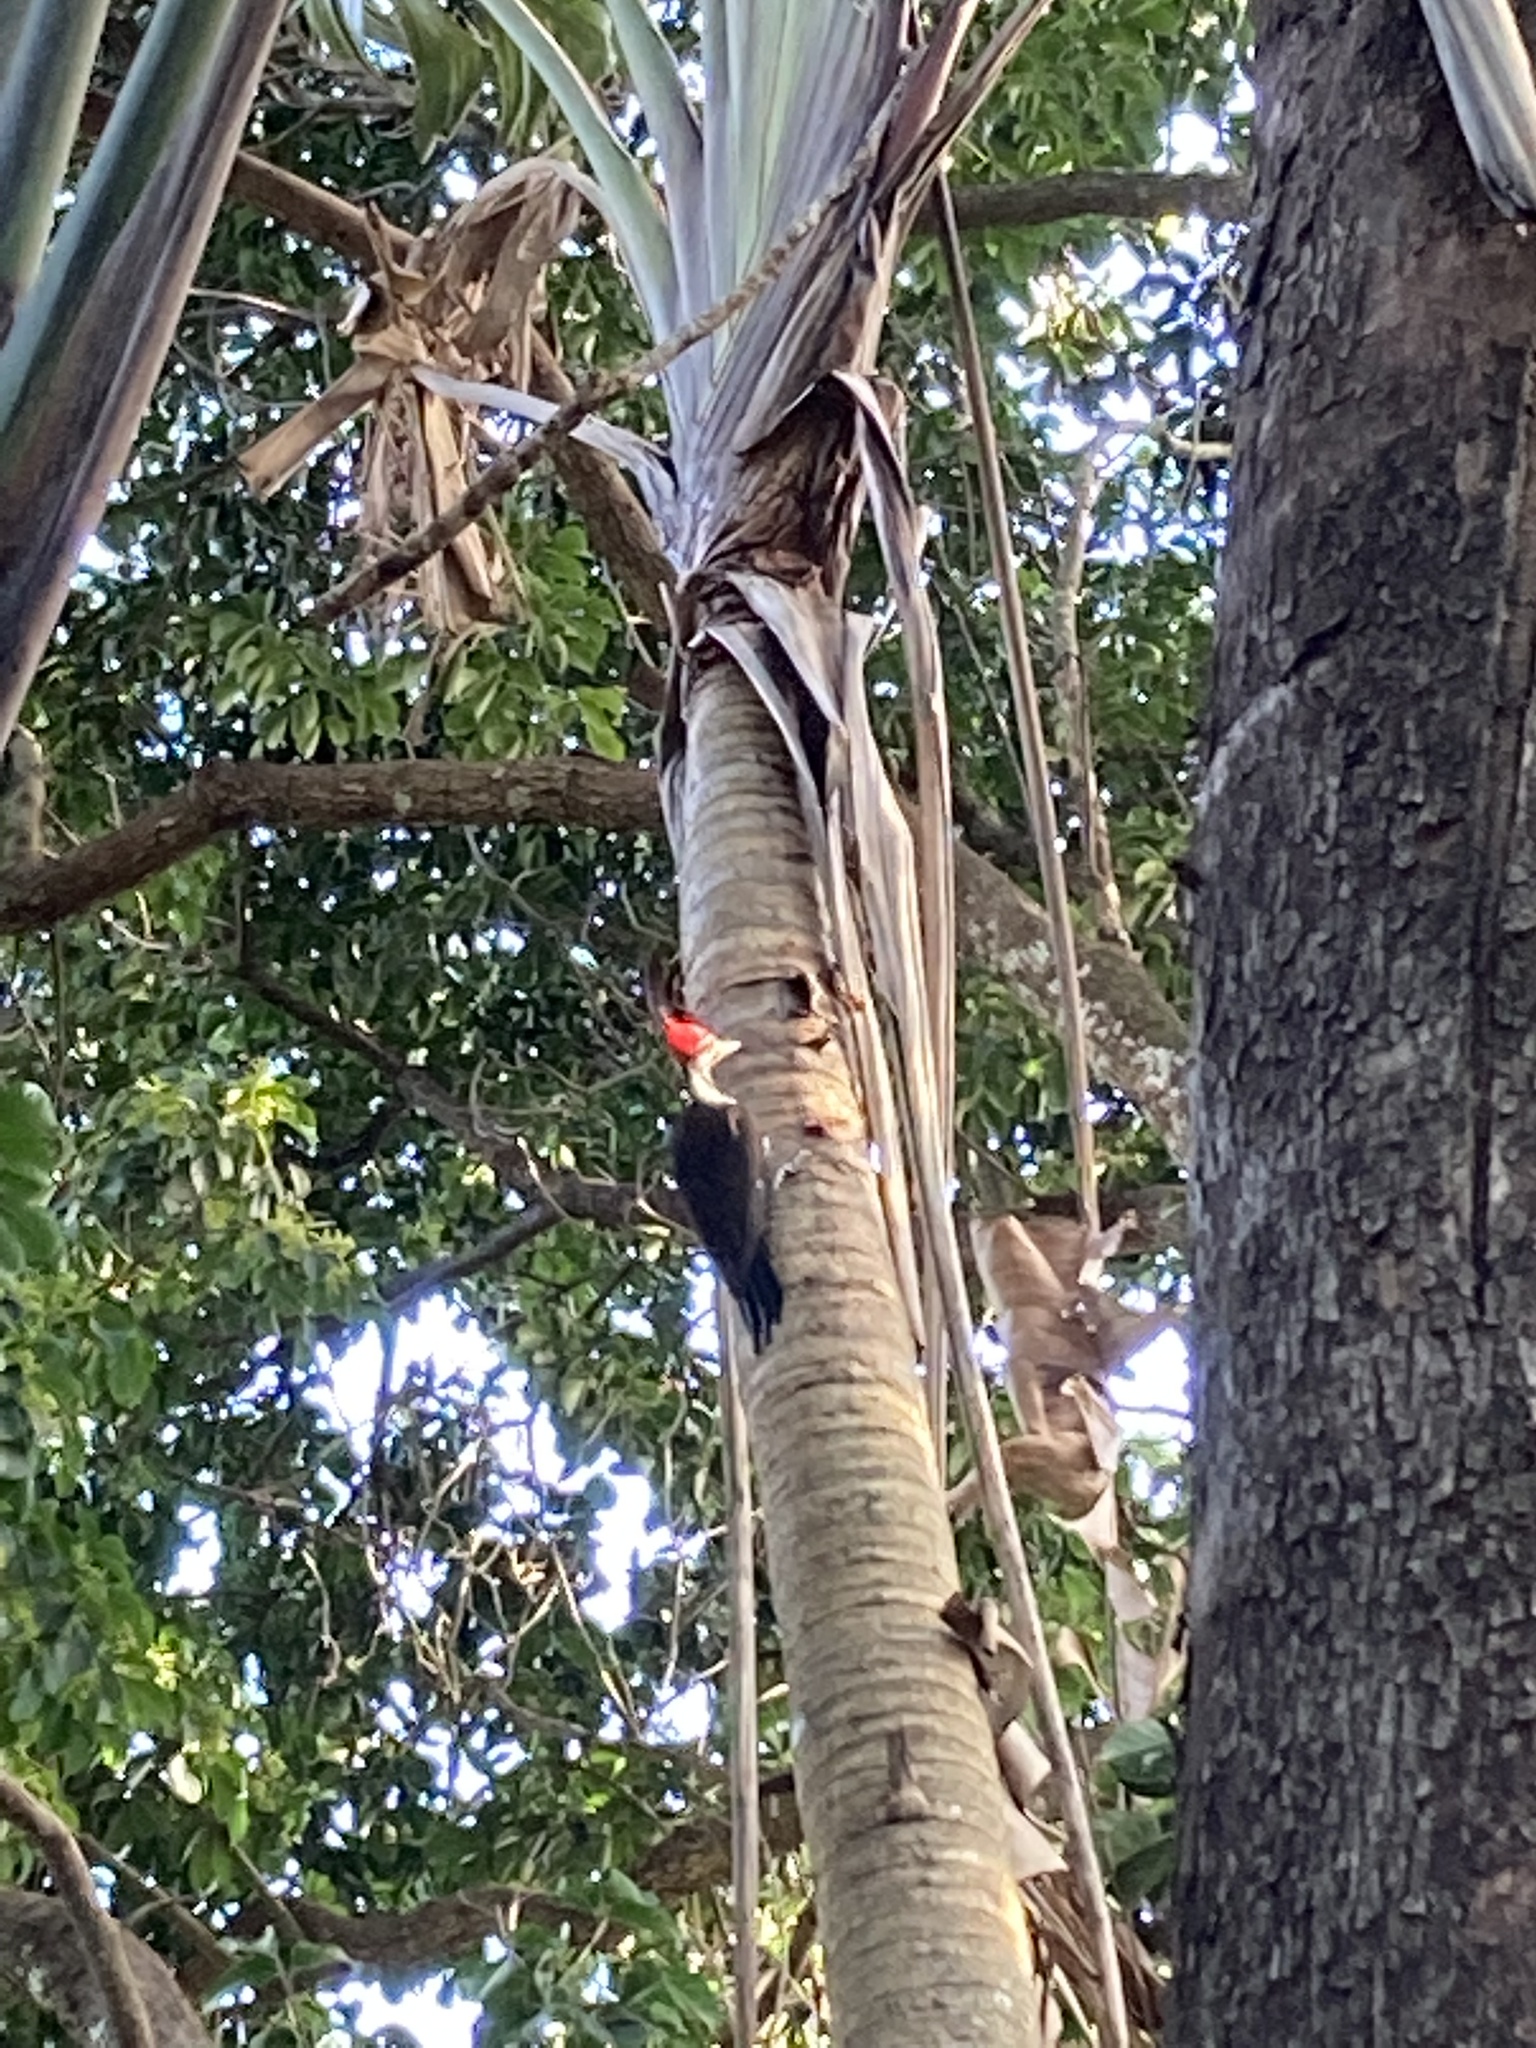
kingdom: Animalia
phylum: Chordata
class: Aves
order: Piciformes
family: Picidae
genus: Dryocopus
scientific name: Dryocopus pileatus
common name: Pileated woodpecker
